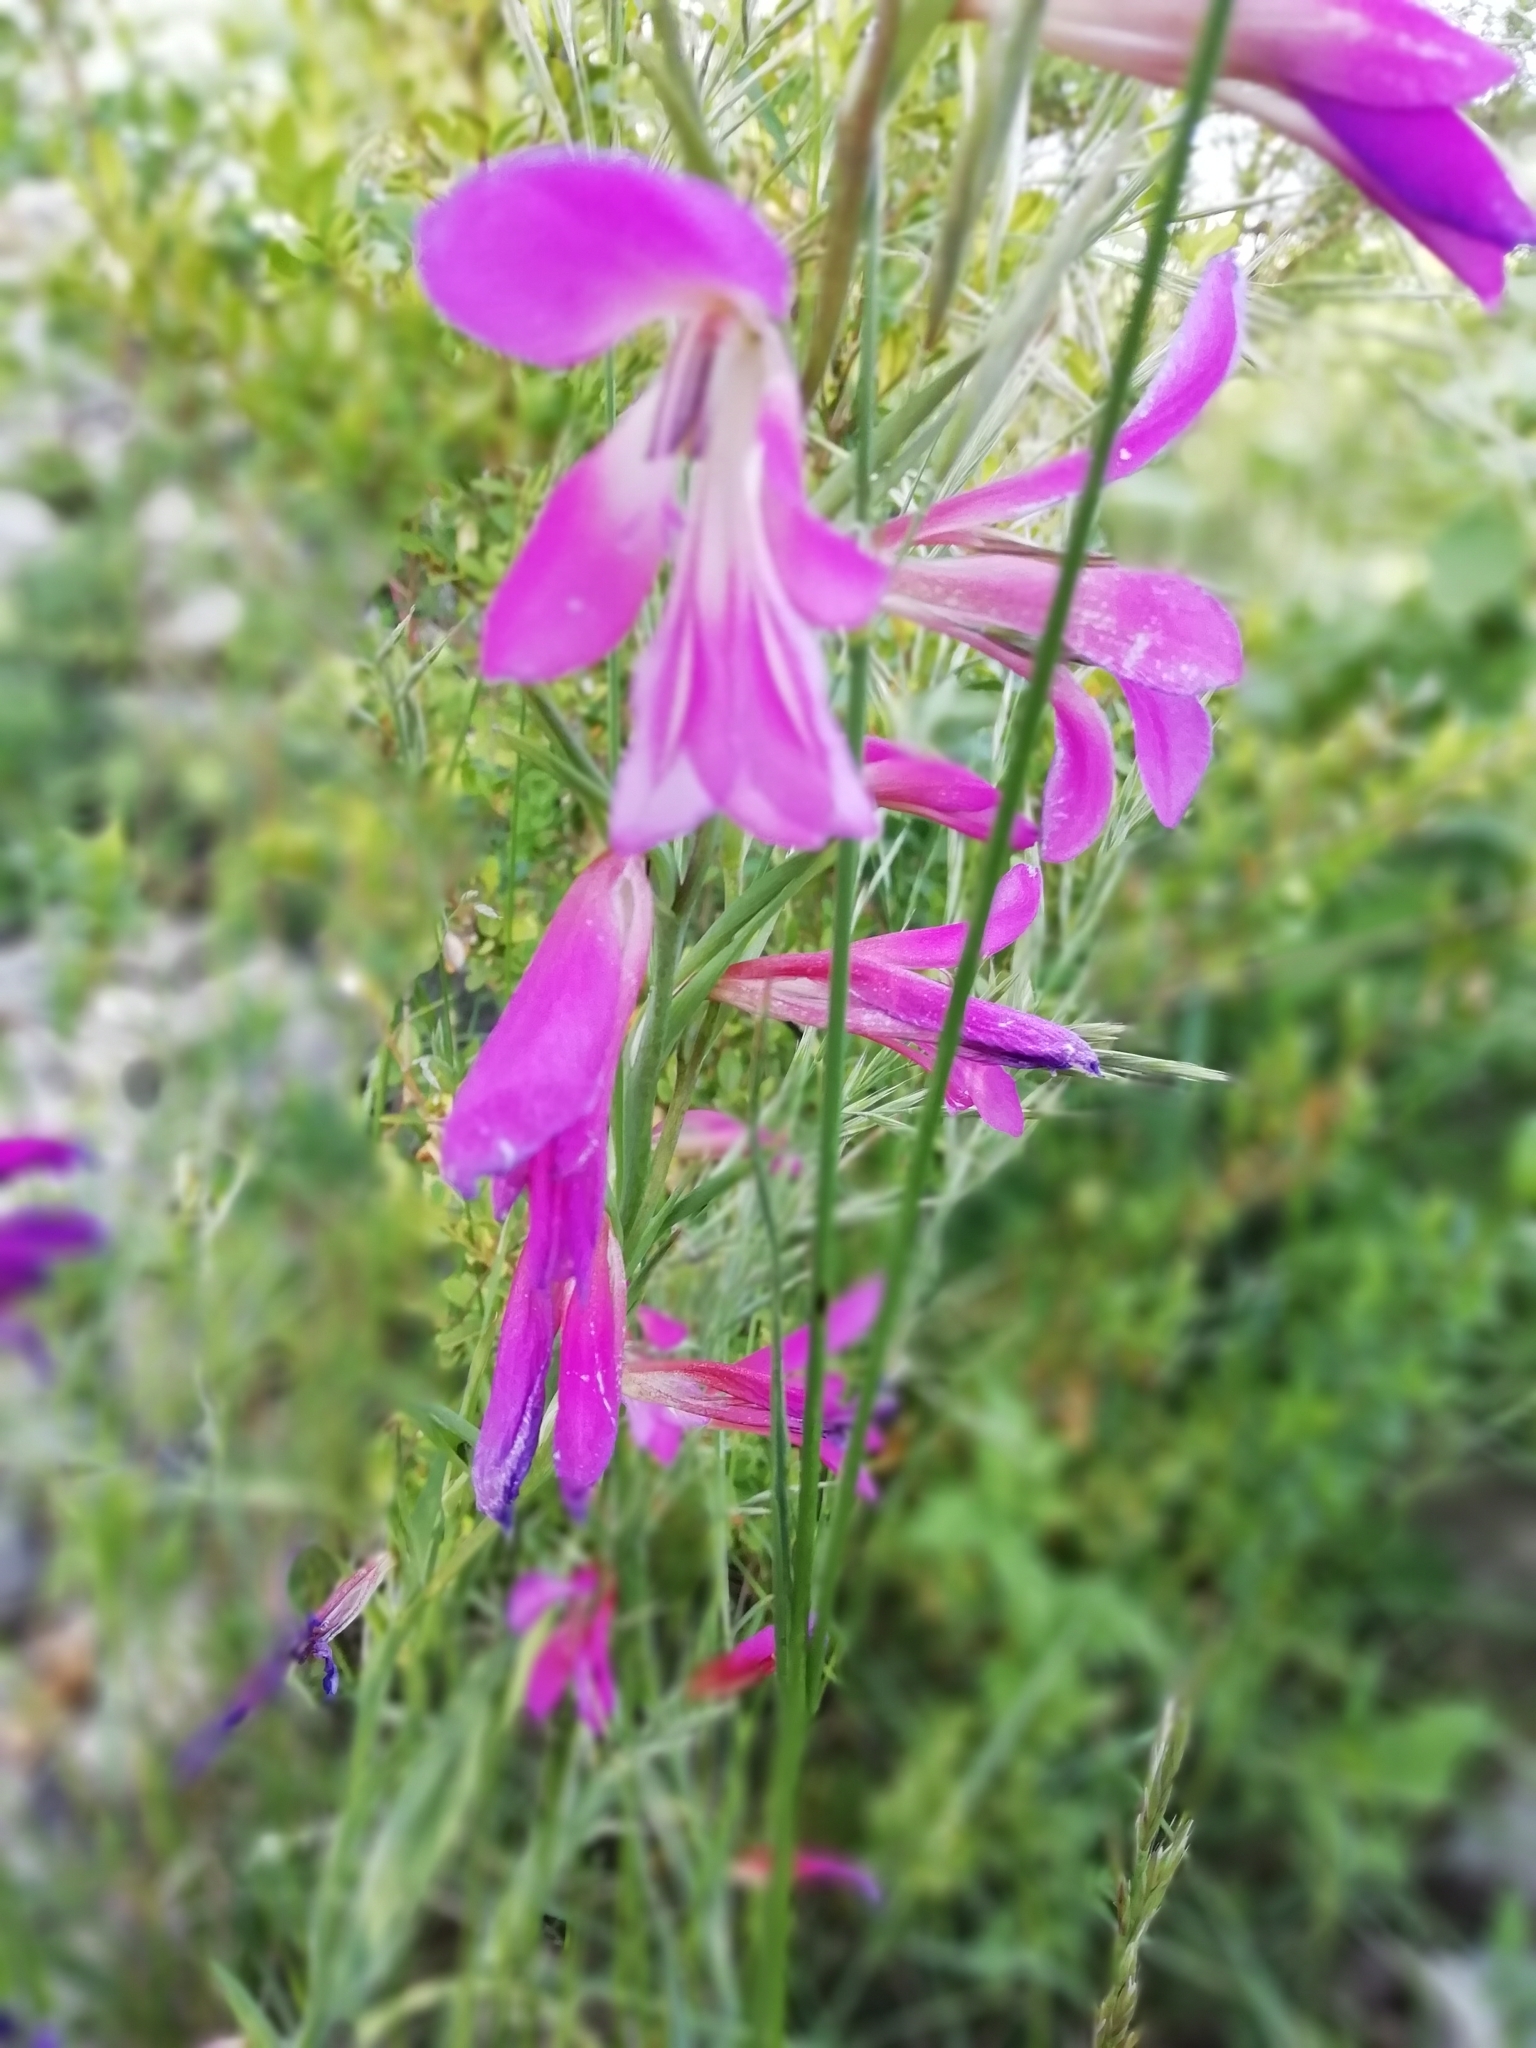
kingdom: Plantae
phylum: Tracheophyta
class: Liliopsida
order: Asparagales
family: Iridaceae
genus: Gladiolus
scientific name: Gladiolus italicus
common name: Field gladiolus
